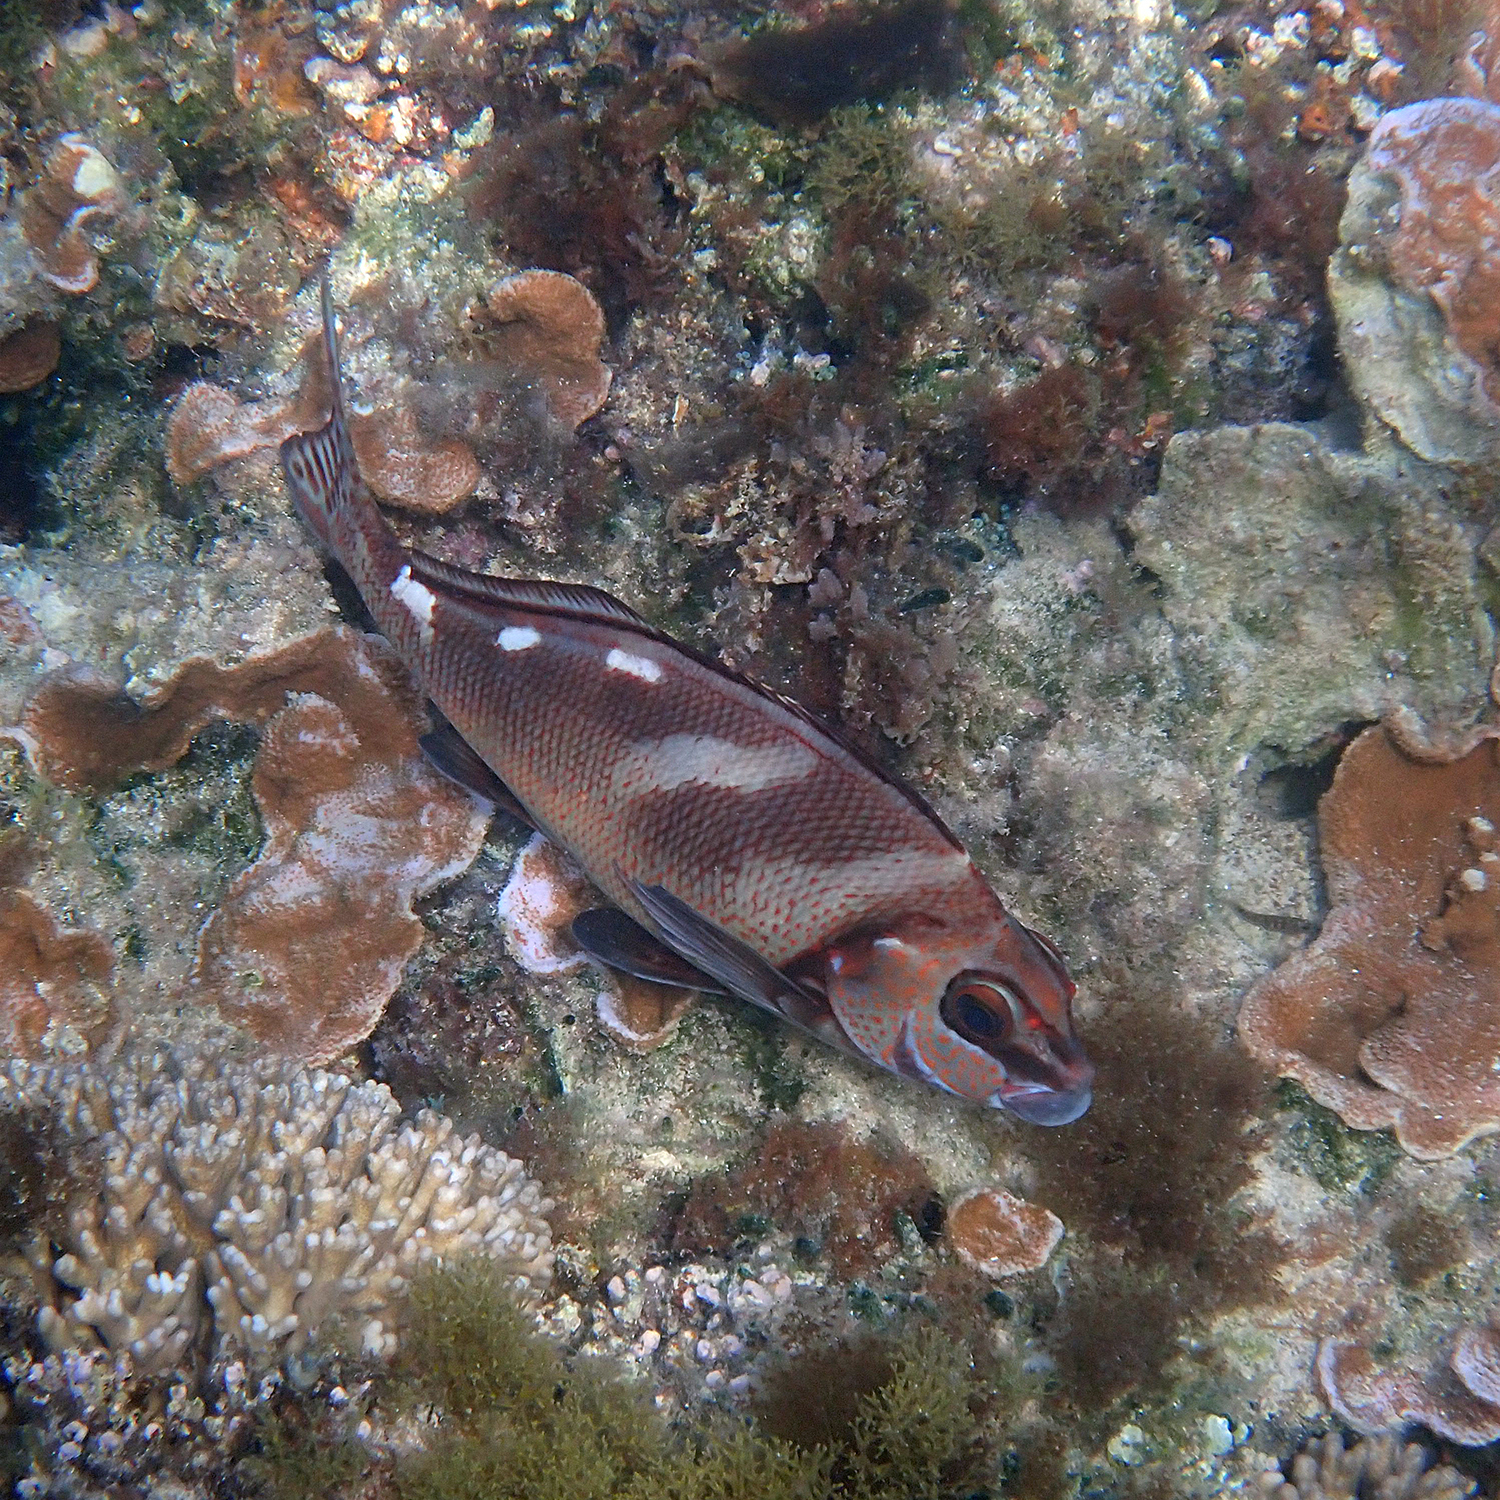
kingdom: Animalia
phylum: Chordata
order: Perciformes
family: Latridae
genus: Morwong
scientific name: Morwong ephippium
